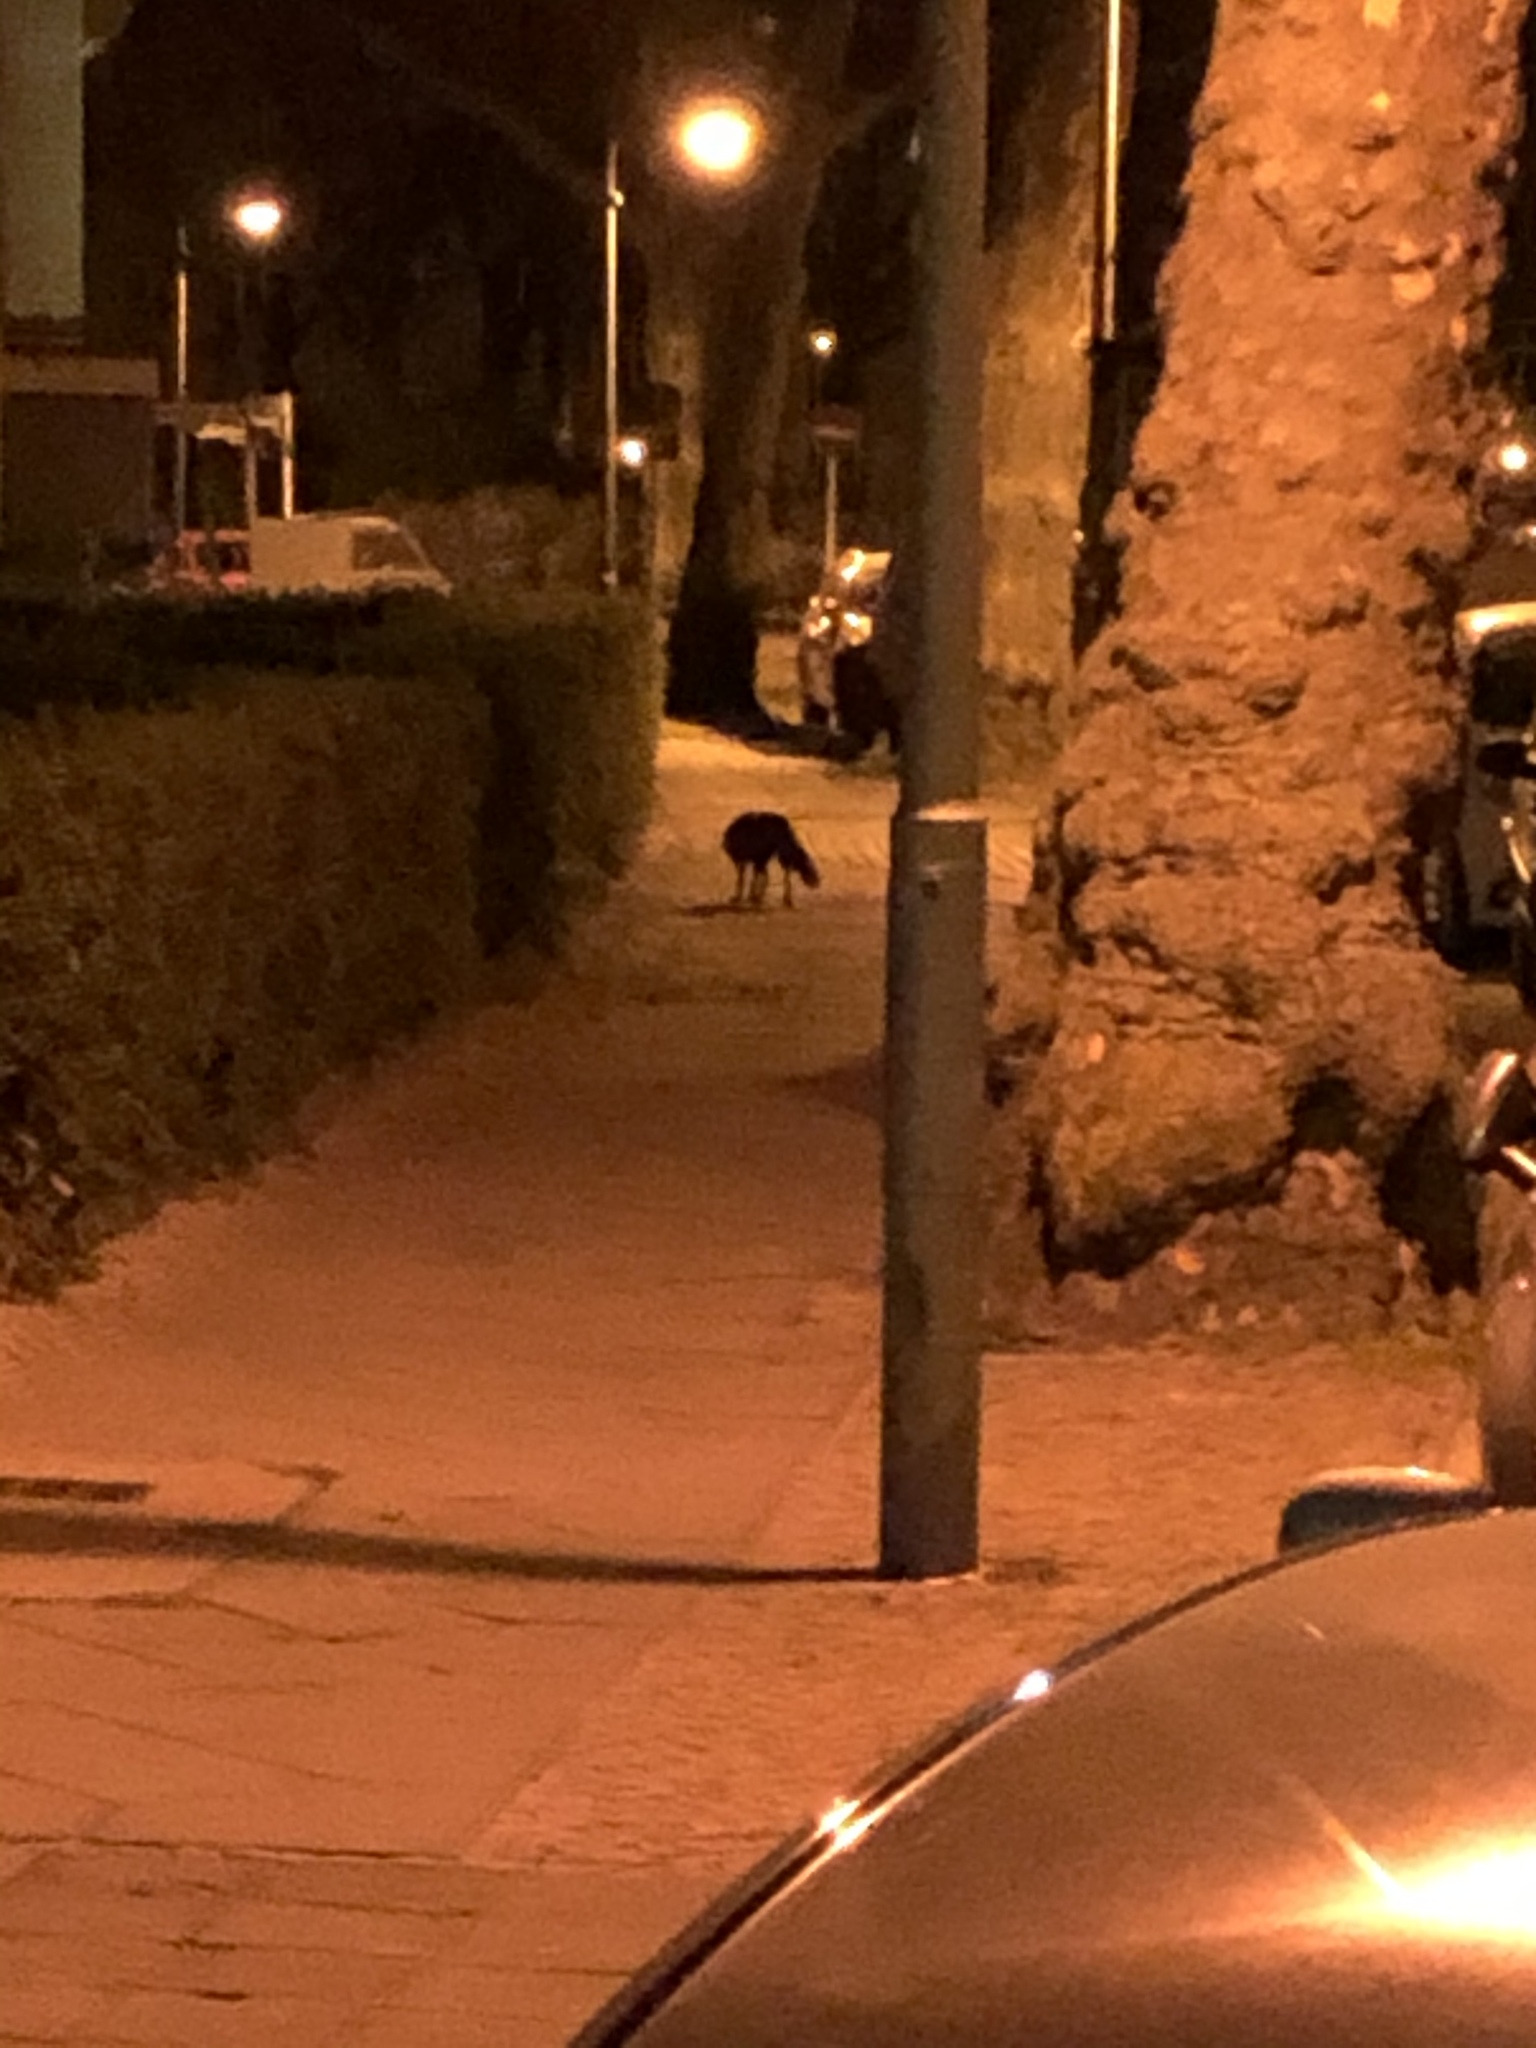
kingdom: Animalia
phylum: Chordata
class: Mammalia
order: Carnivora
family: Canidae
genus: Vulpes
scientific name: Vulpes vulpes
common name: Red fox
